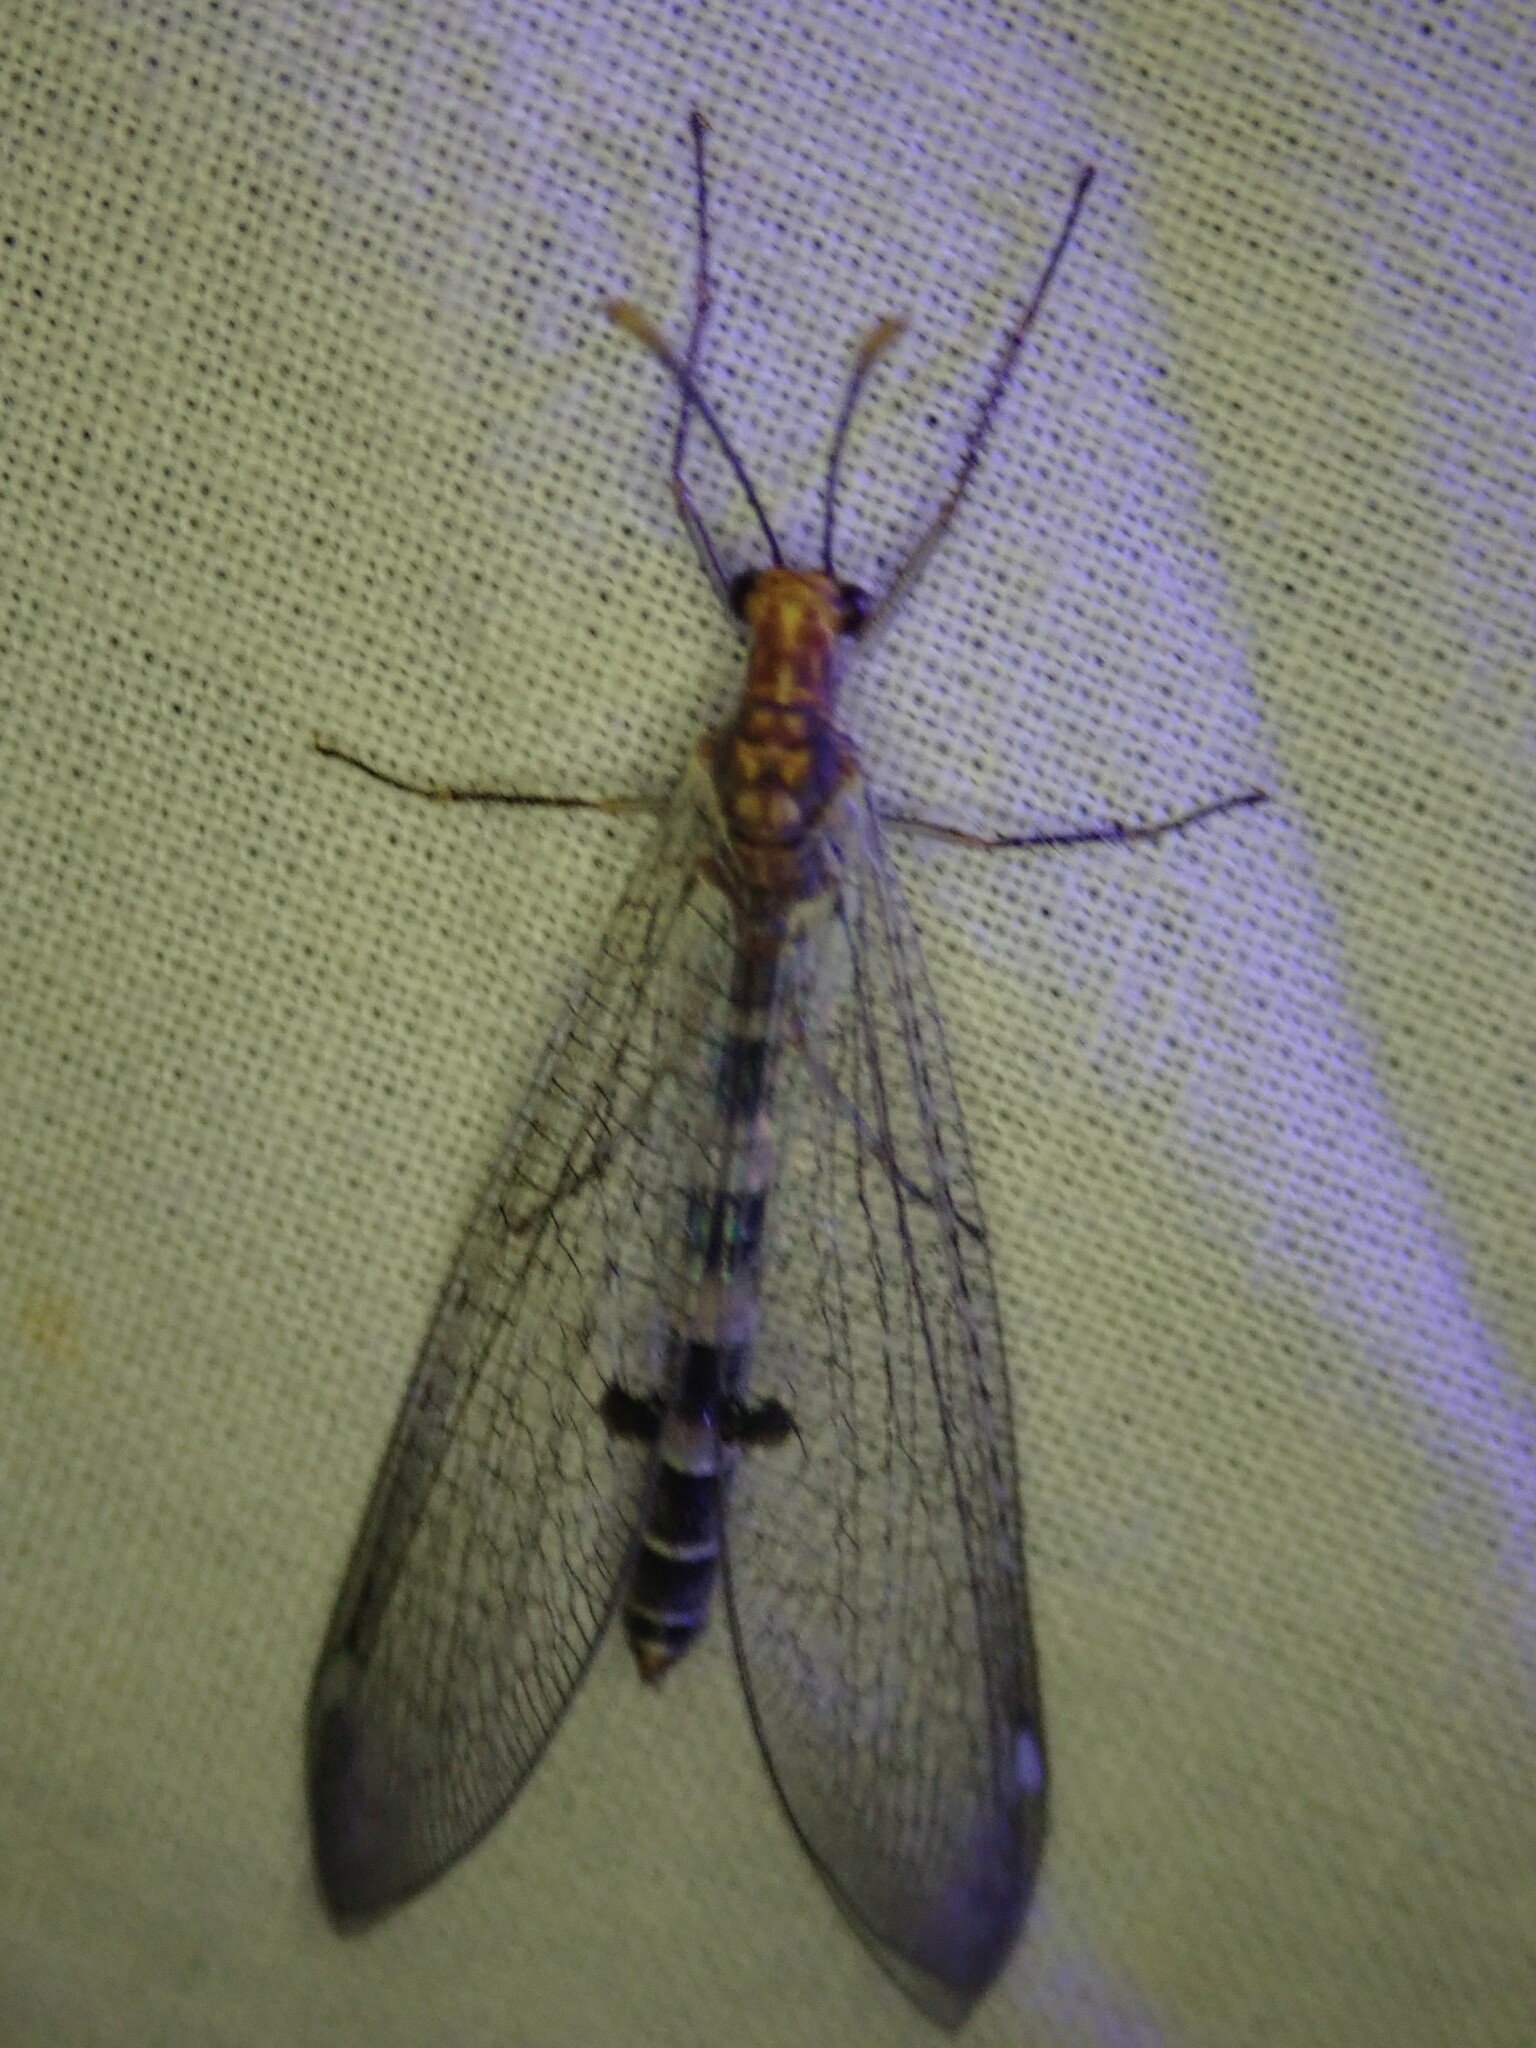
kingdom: Animalia
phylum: Arthropoda
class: Insecta
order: Neuroptera
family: Myrmeleontidae
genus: Megistopus
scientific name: Megistopus flavicornis
